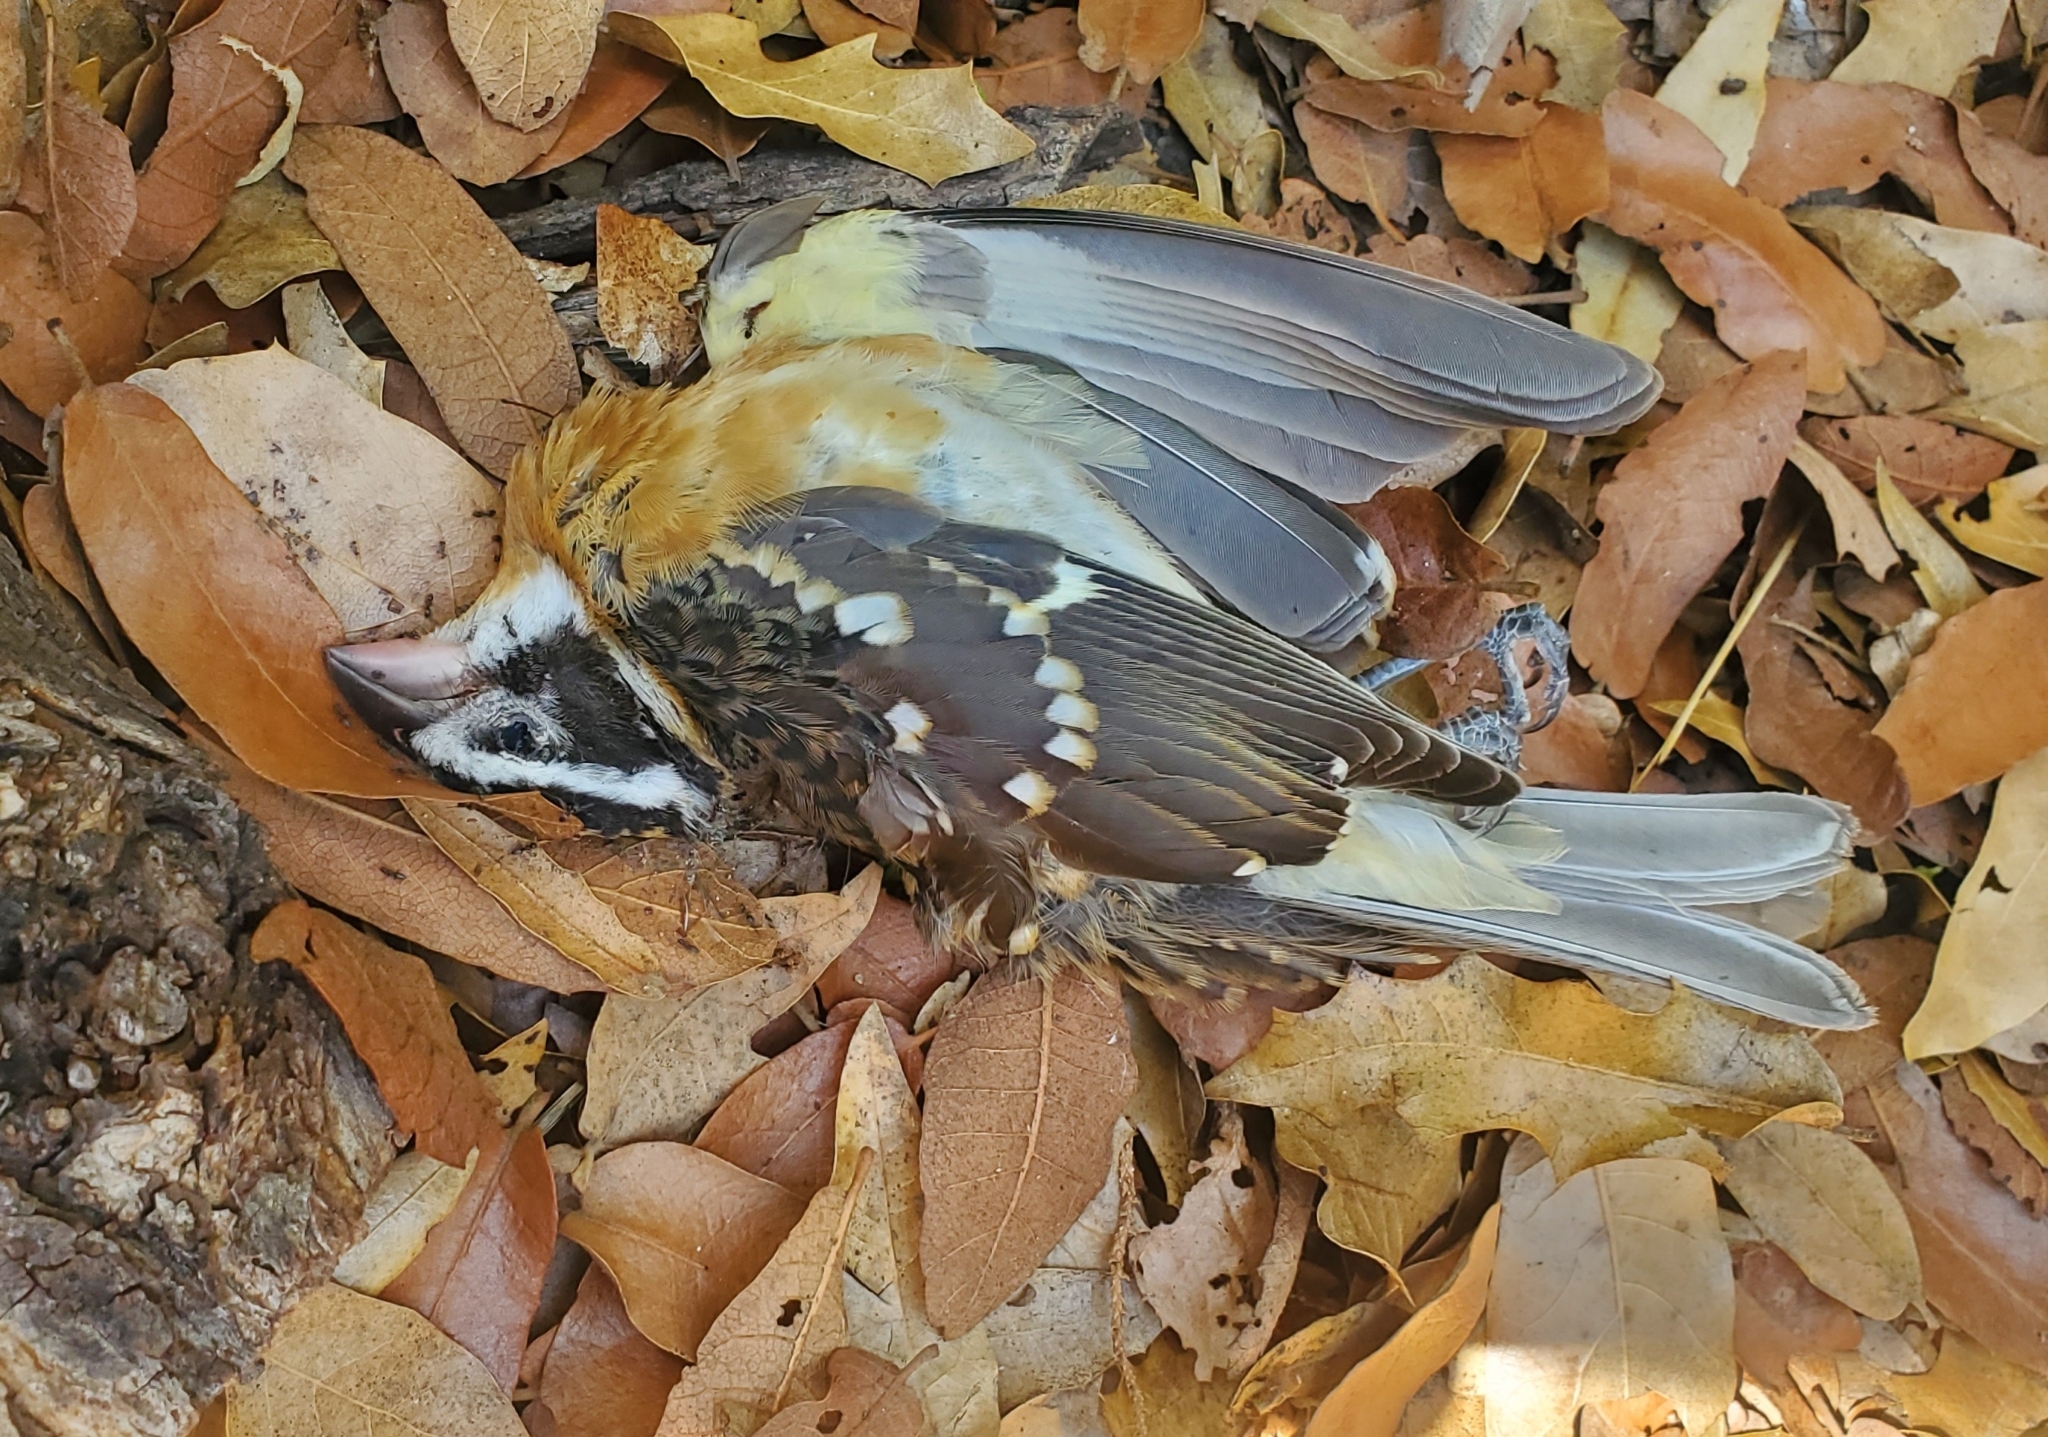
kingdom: Animalia
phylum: Chordata
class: Aves
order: Passeriformes
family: Cardinalidae
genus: Pheucticus
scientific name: Pheucticus melanocephalus
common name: Black-headed grosbeak
